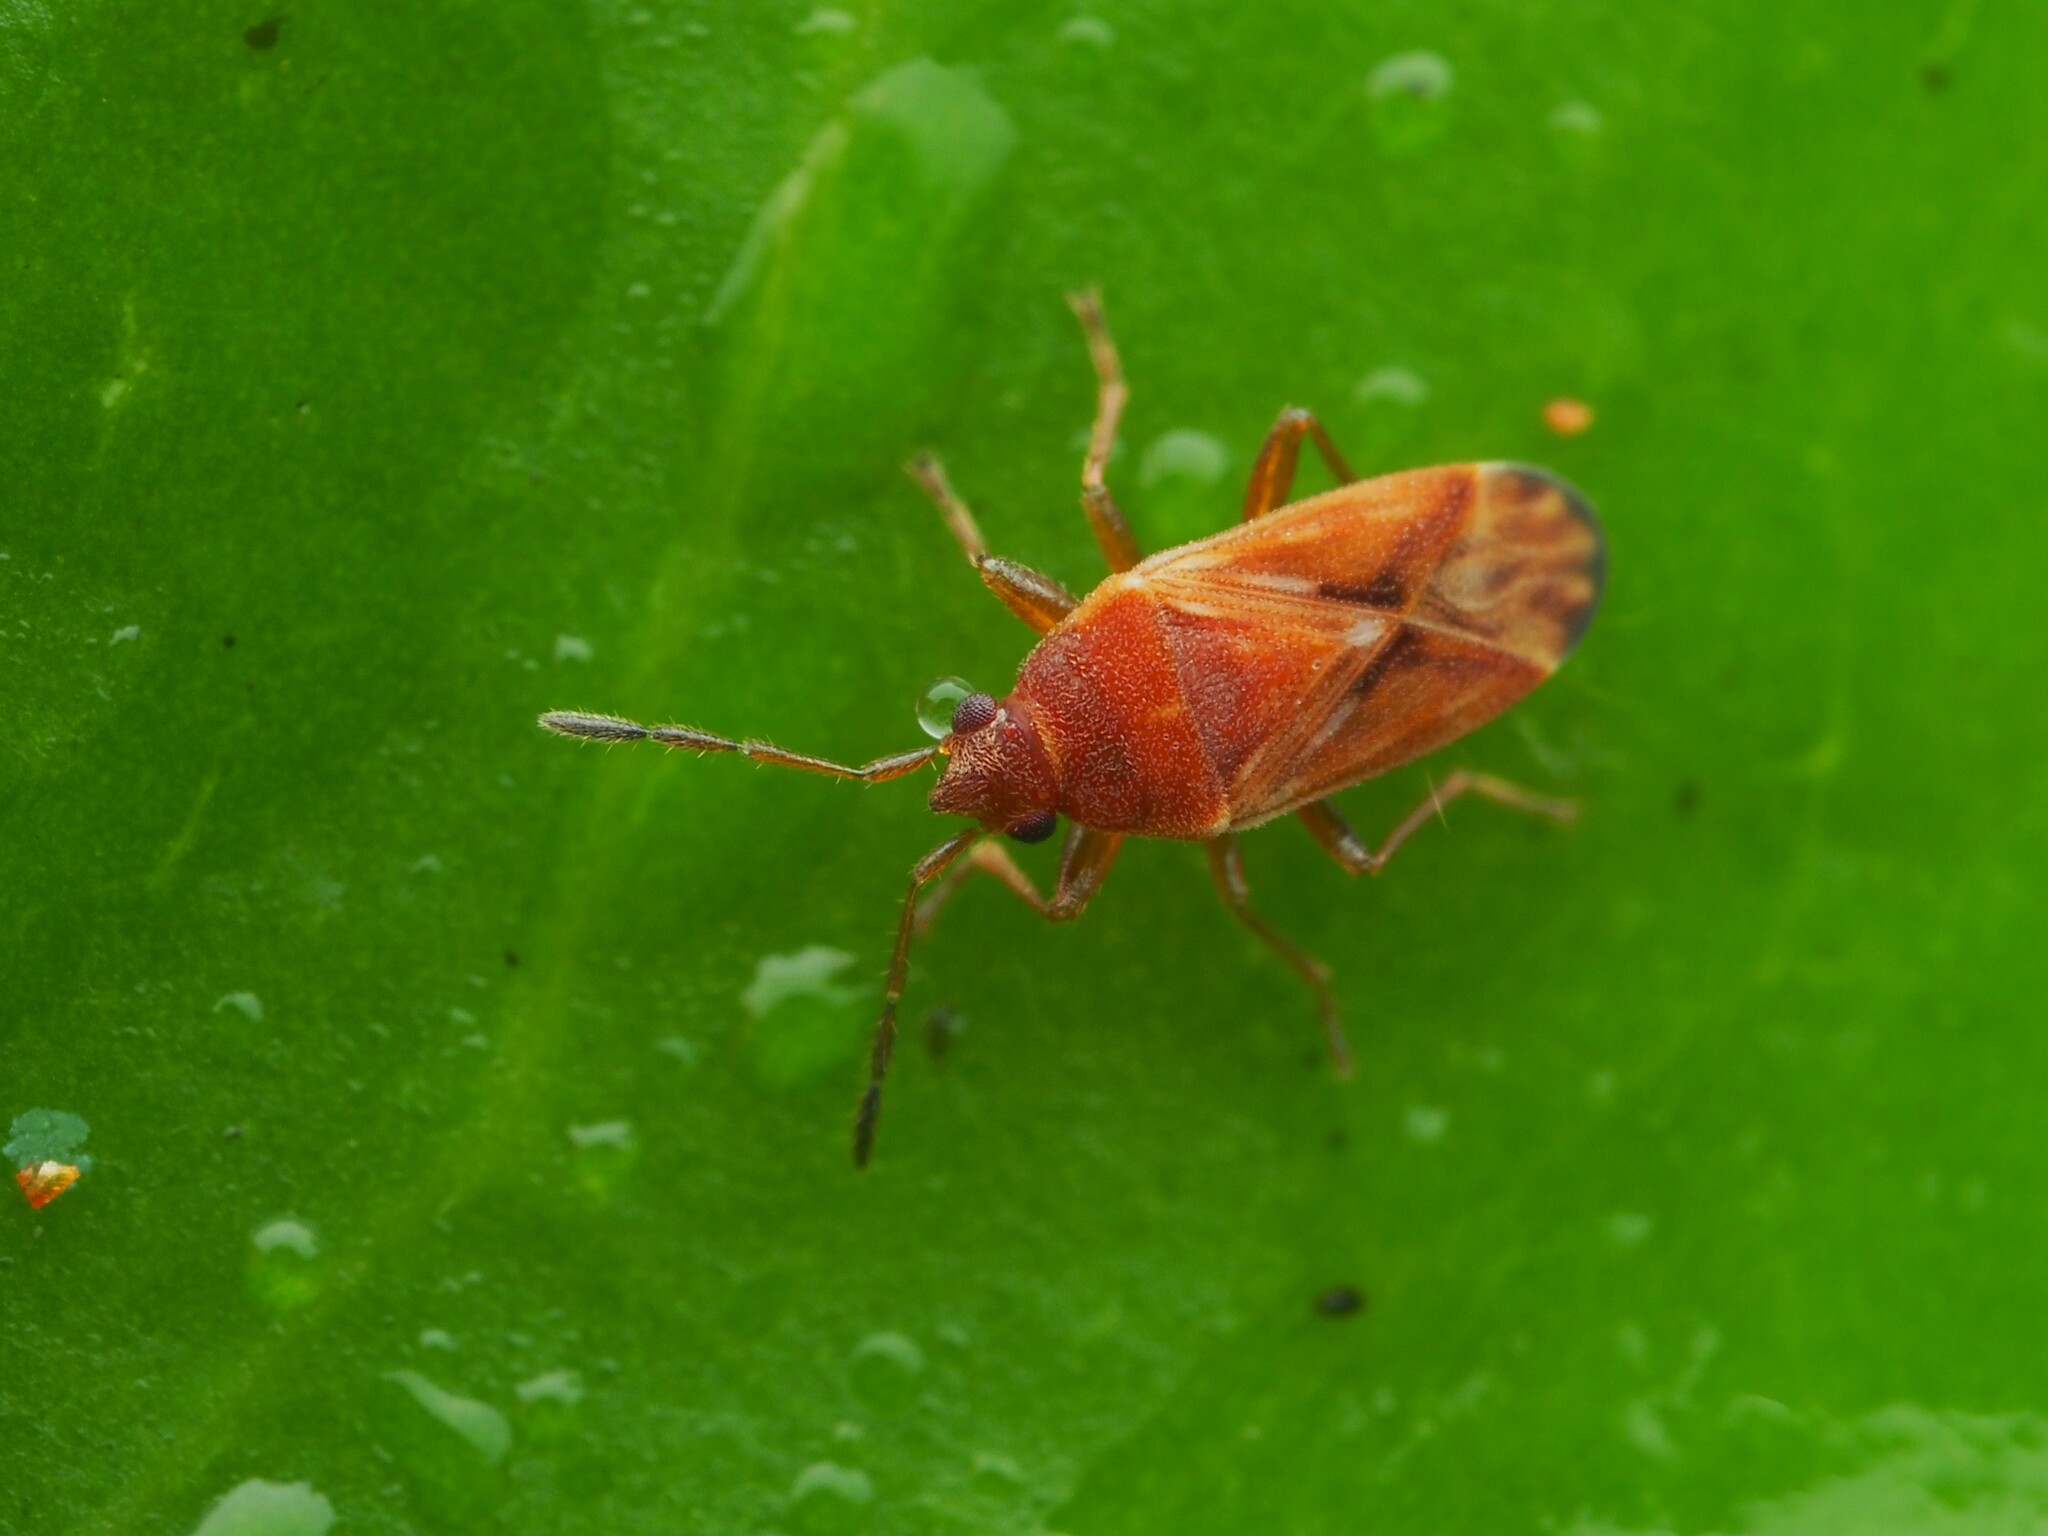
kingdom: Animalia
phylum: Arthropoda
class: Insecta
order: Hemiptera
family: Rhyparochromidae
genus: Targarema
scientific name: Targarema stali
